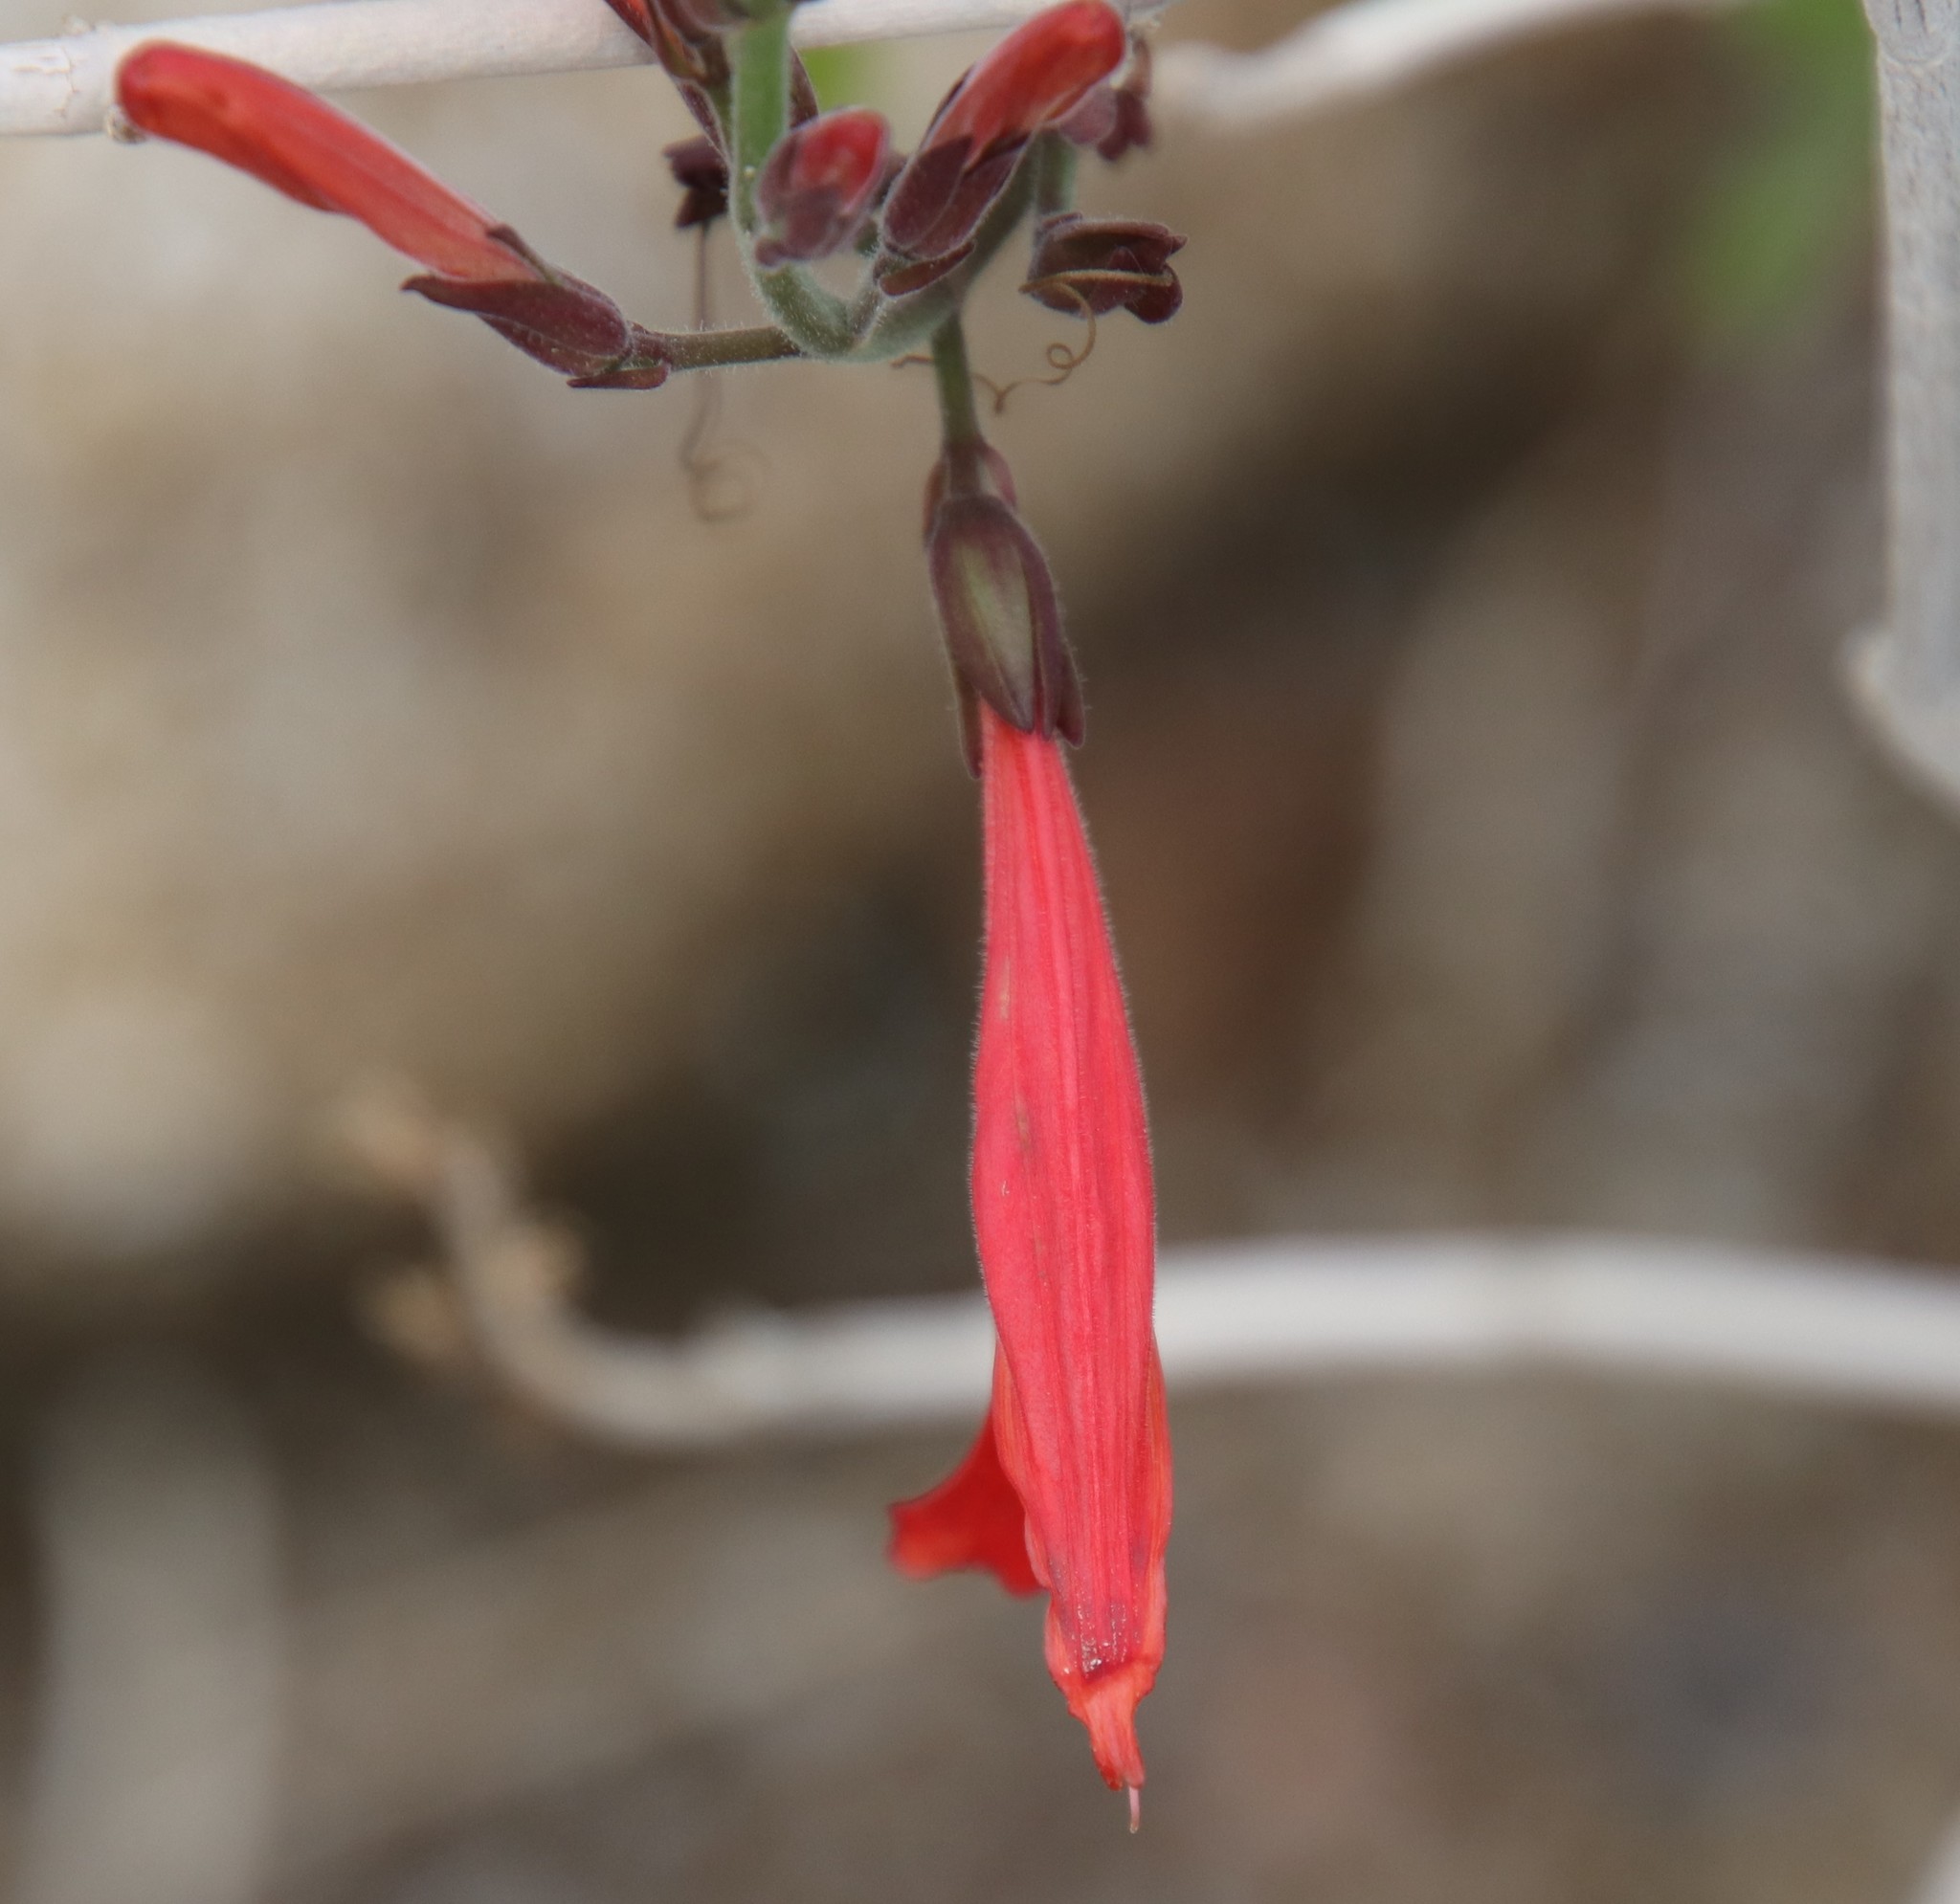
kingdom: Plantae
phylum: Tracheophyta
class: Magnoliopsida
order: Lamiales
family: Acanthaceae
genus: Justicia
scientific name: Justicia californica
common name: Chuparosa-honeysuckle
